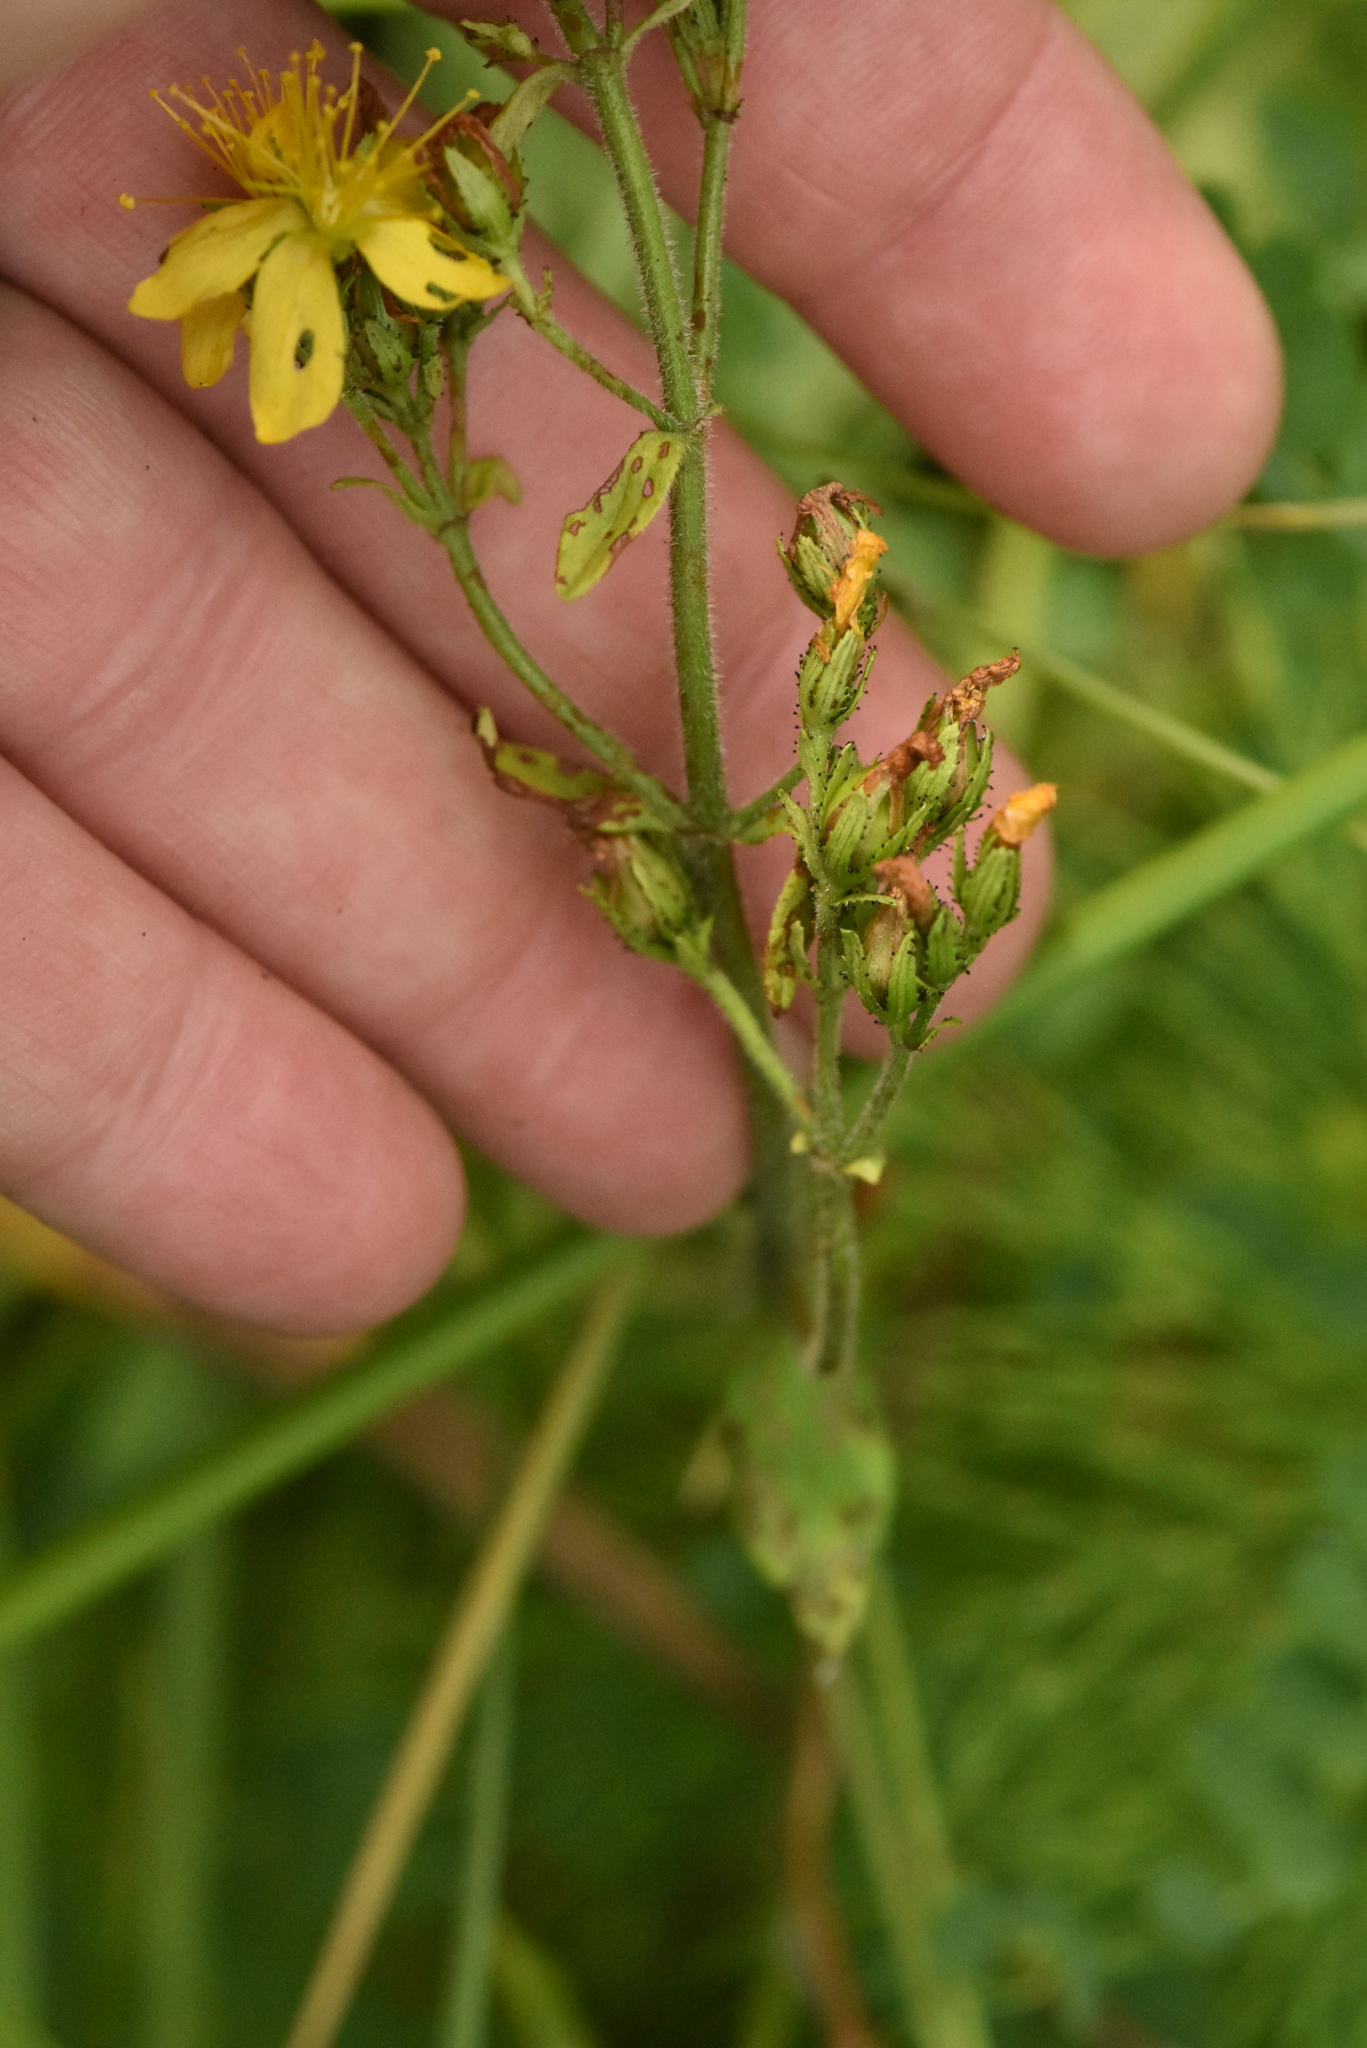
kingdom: Plantae
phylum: Tracheophyta
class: Magnoliopsida
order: Malpighiales
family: Hypericaceae
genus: Hypericum
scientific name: Hypericum hirsutum
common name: Hairy st. john's-wort
